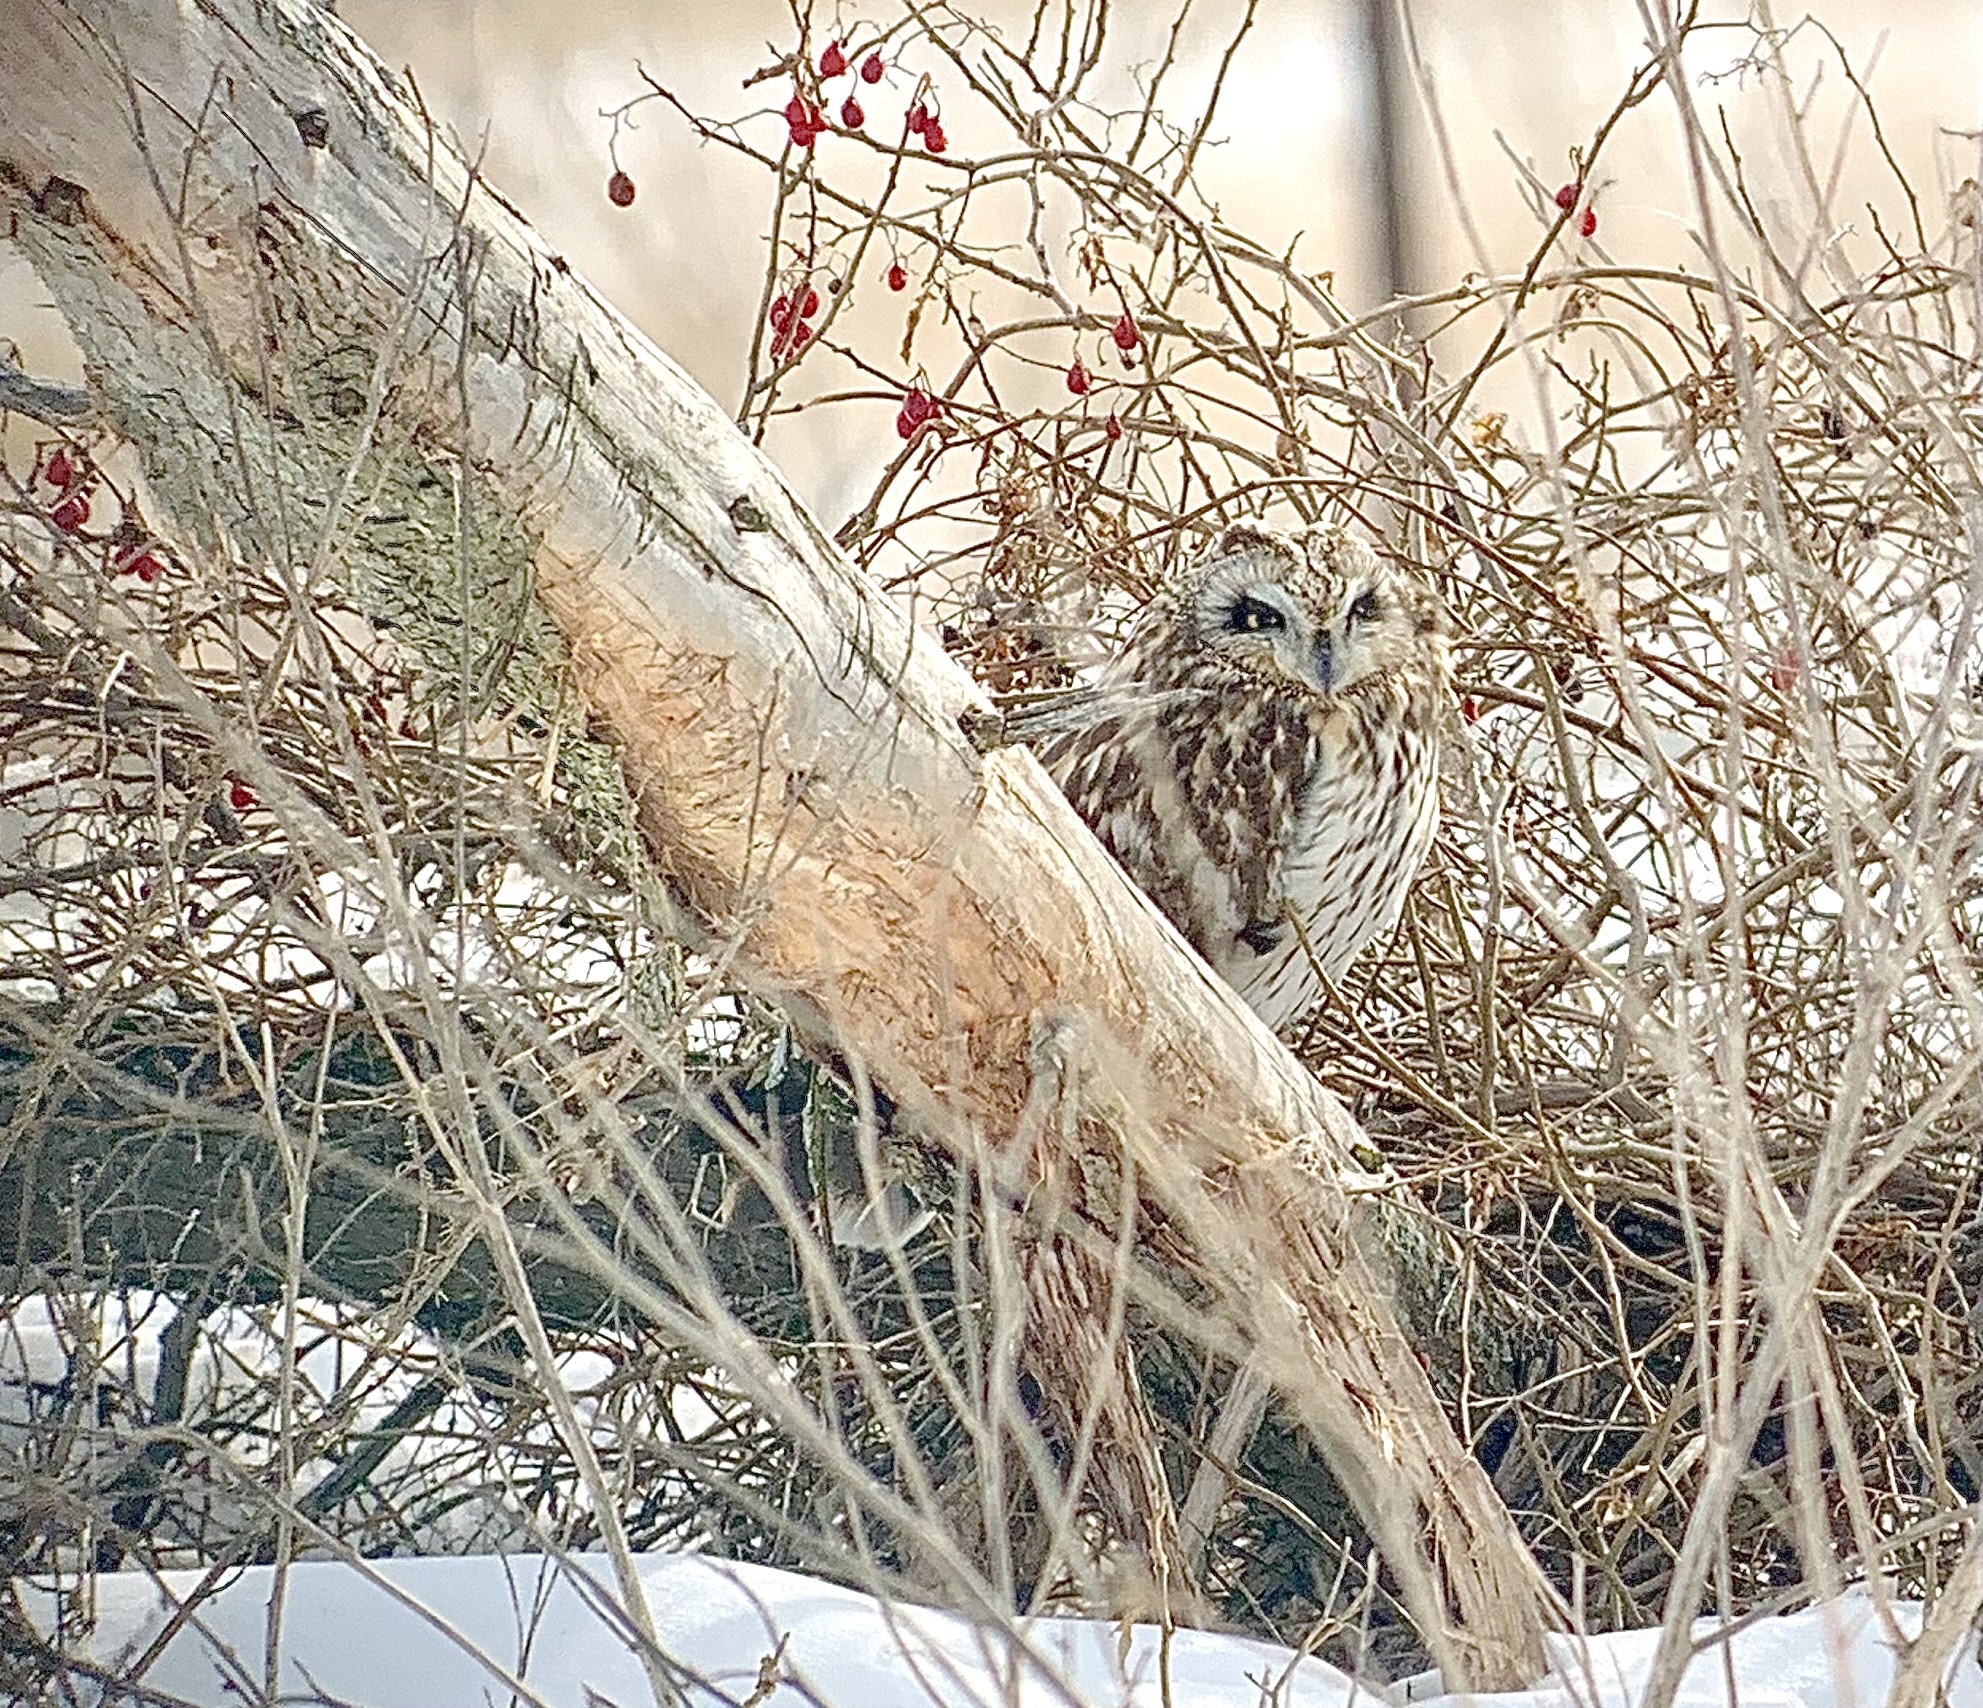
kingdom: Animalia
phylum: Chordata
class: Aves
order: Strigiformes
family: Strigidae
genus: Asio
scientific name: Asio flammeus
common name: Short-eared owl
